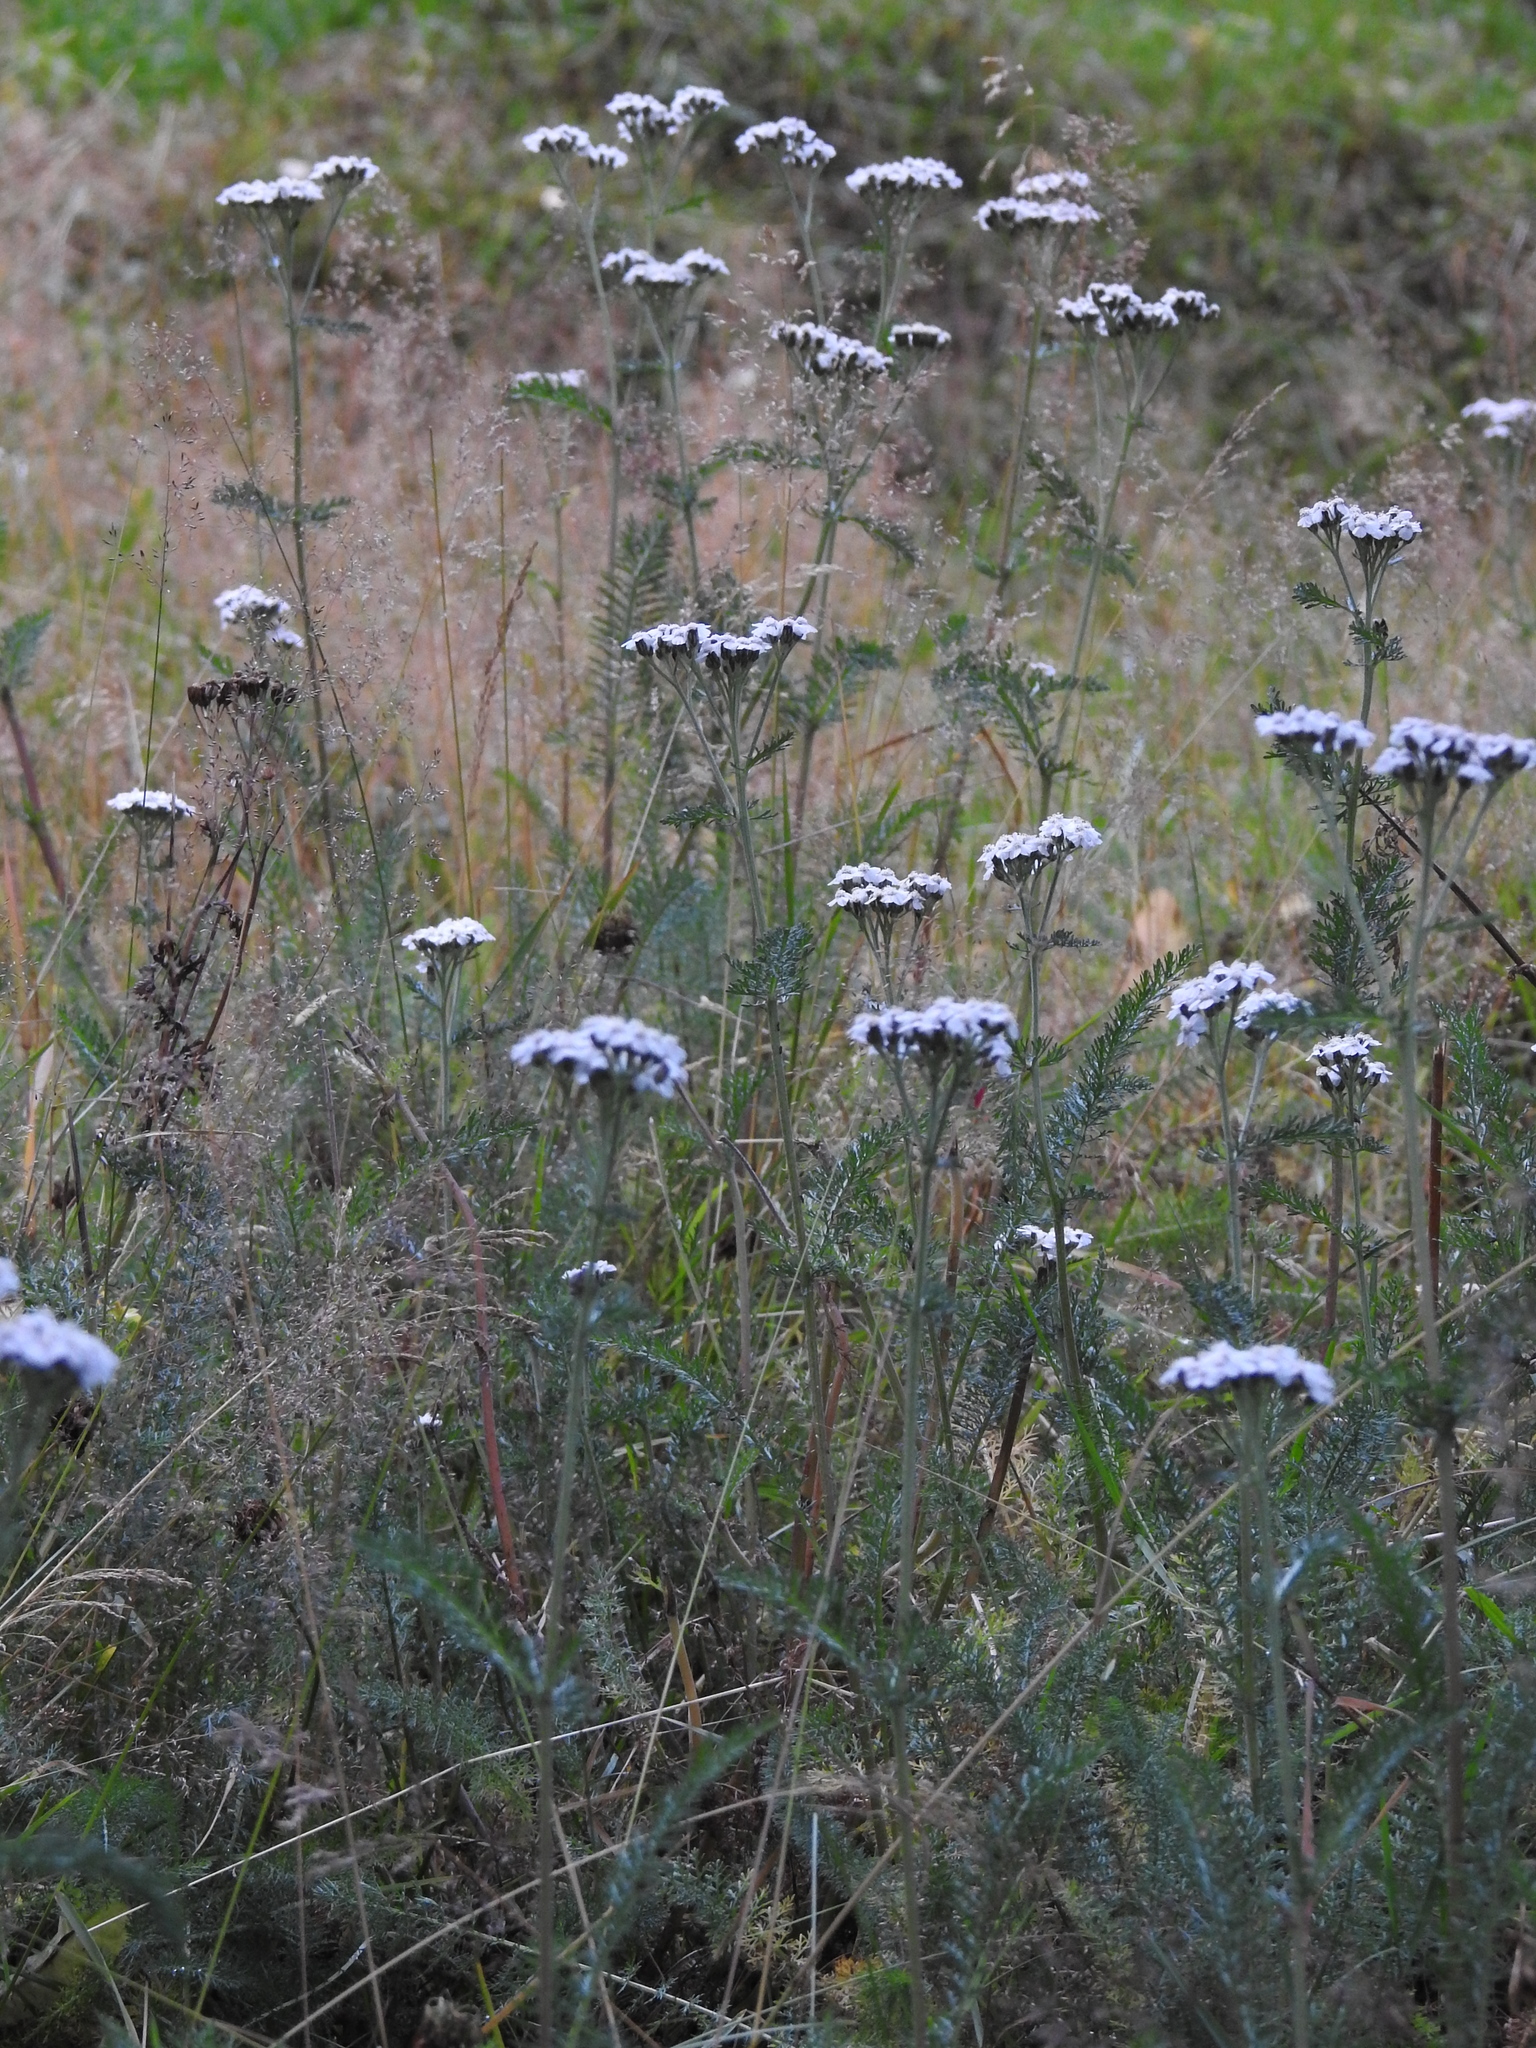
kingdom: Plantae
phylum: Tracheophyta
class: Magnoliopsida
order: Asterales
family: Asteraceae
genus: Achillea
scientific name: Achillea millefolium
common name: Yarrow
